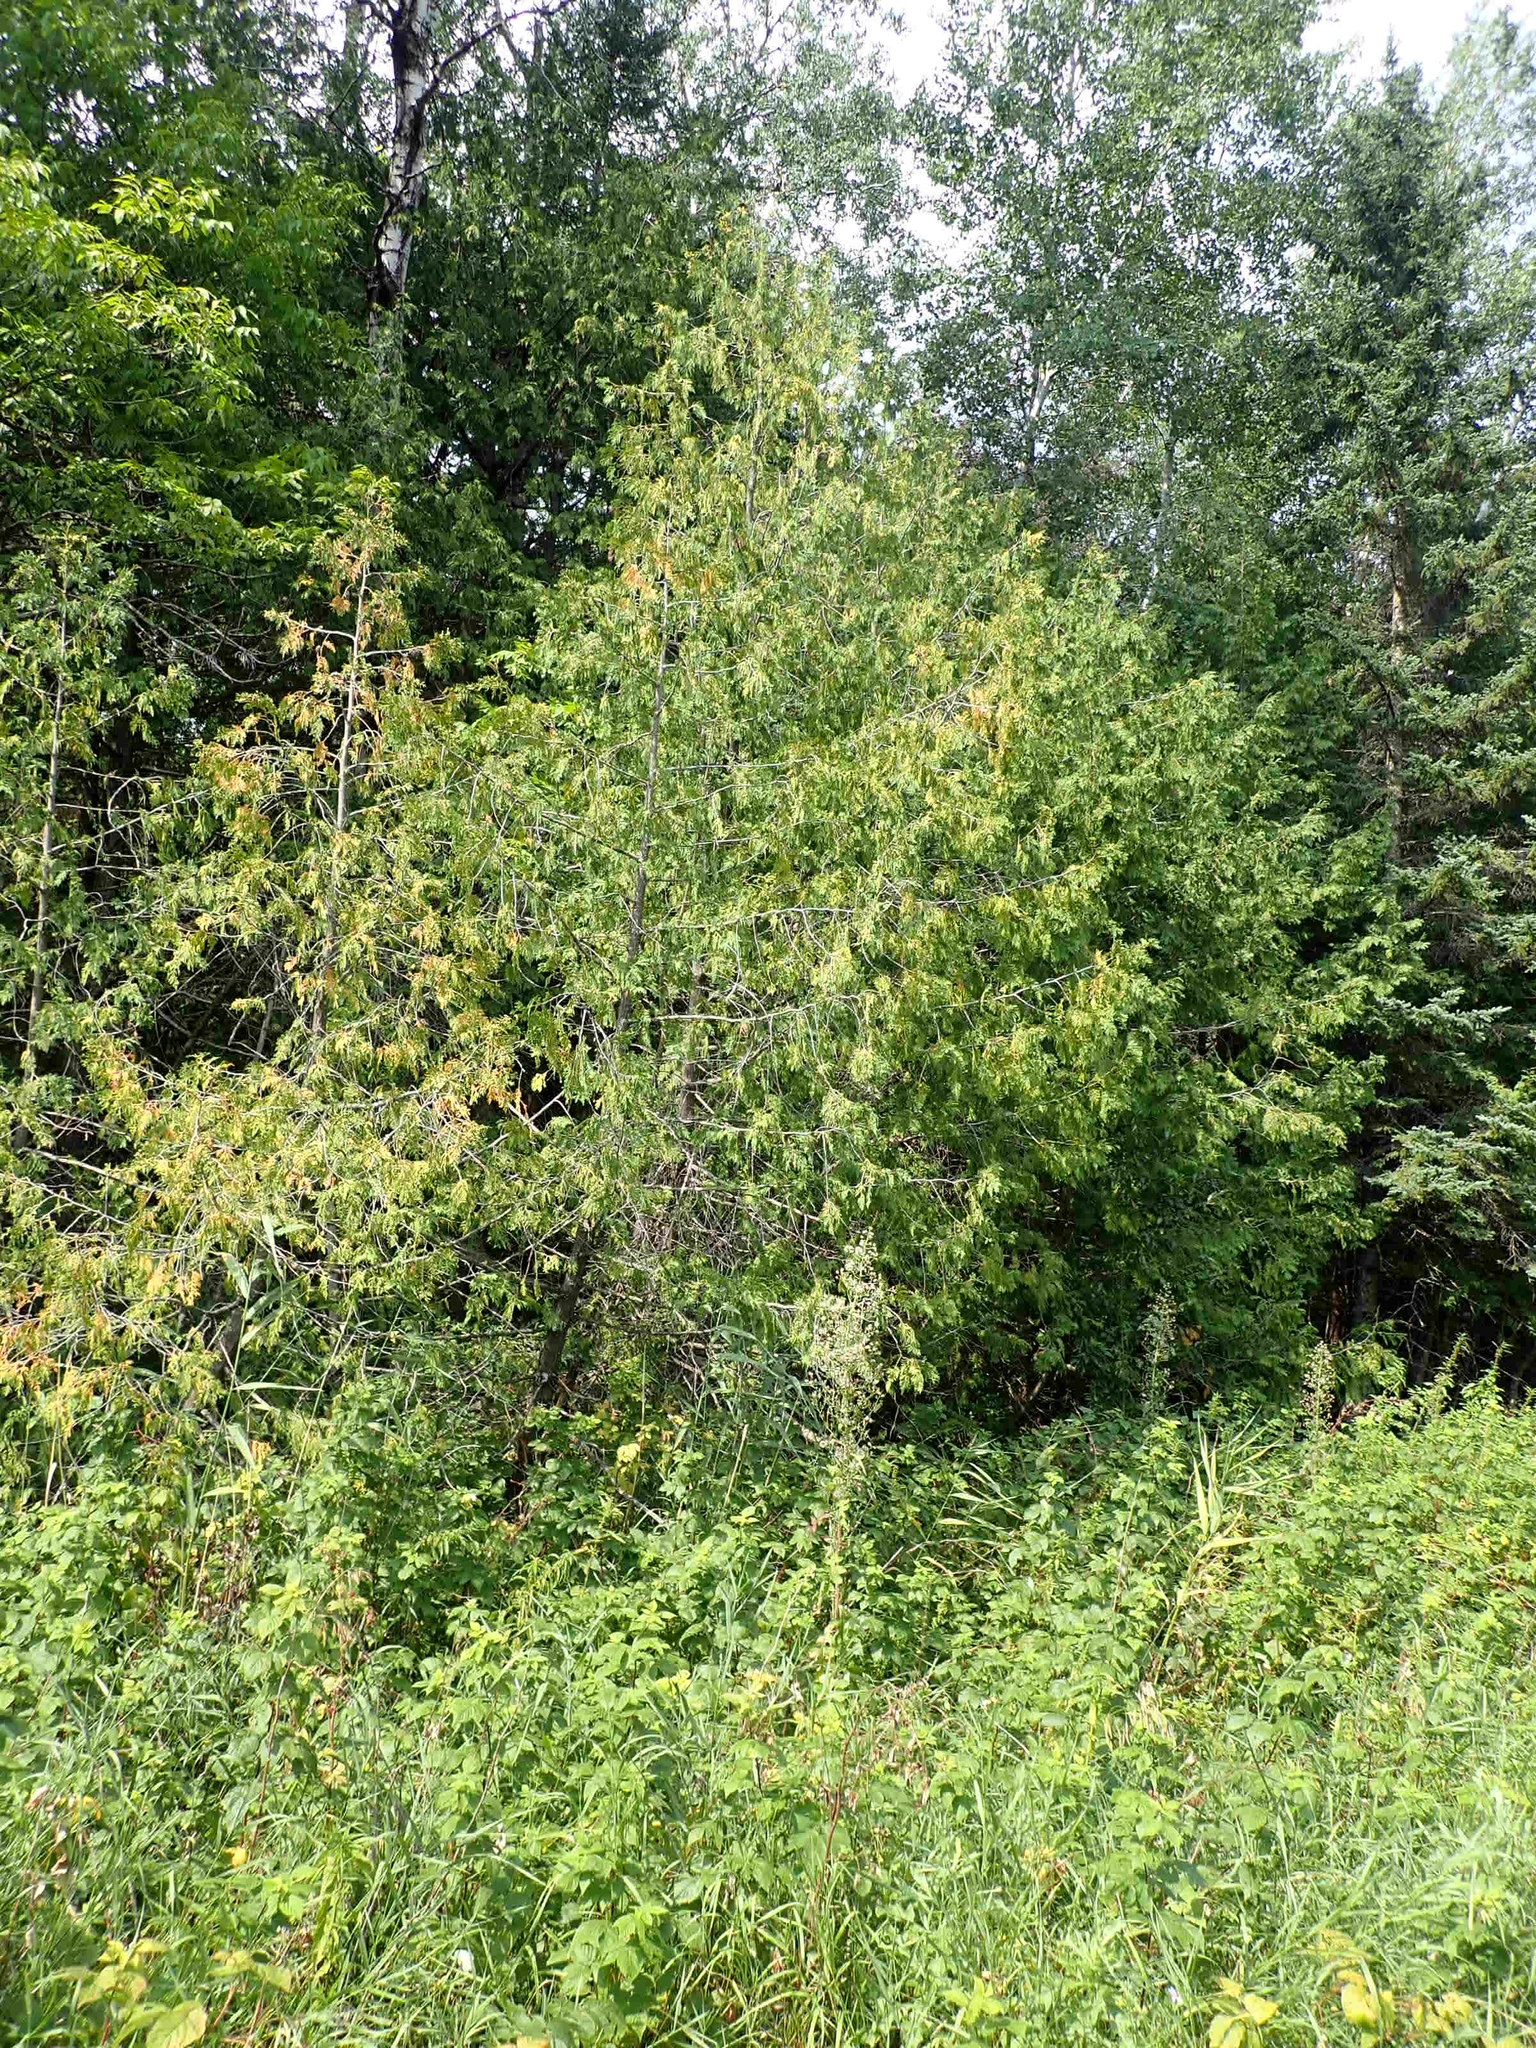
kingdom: Plantae
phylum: Tracheophyta
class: Pinopsida
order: Pinales
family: Cupressaceae
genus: Thuja
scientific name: Thuja occidentalis
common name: Northern white-cedar
